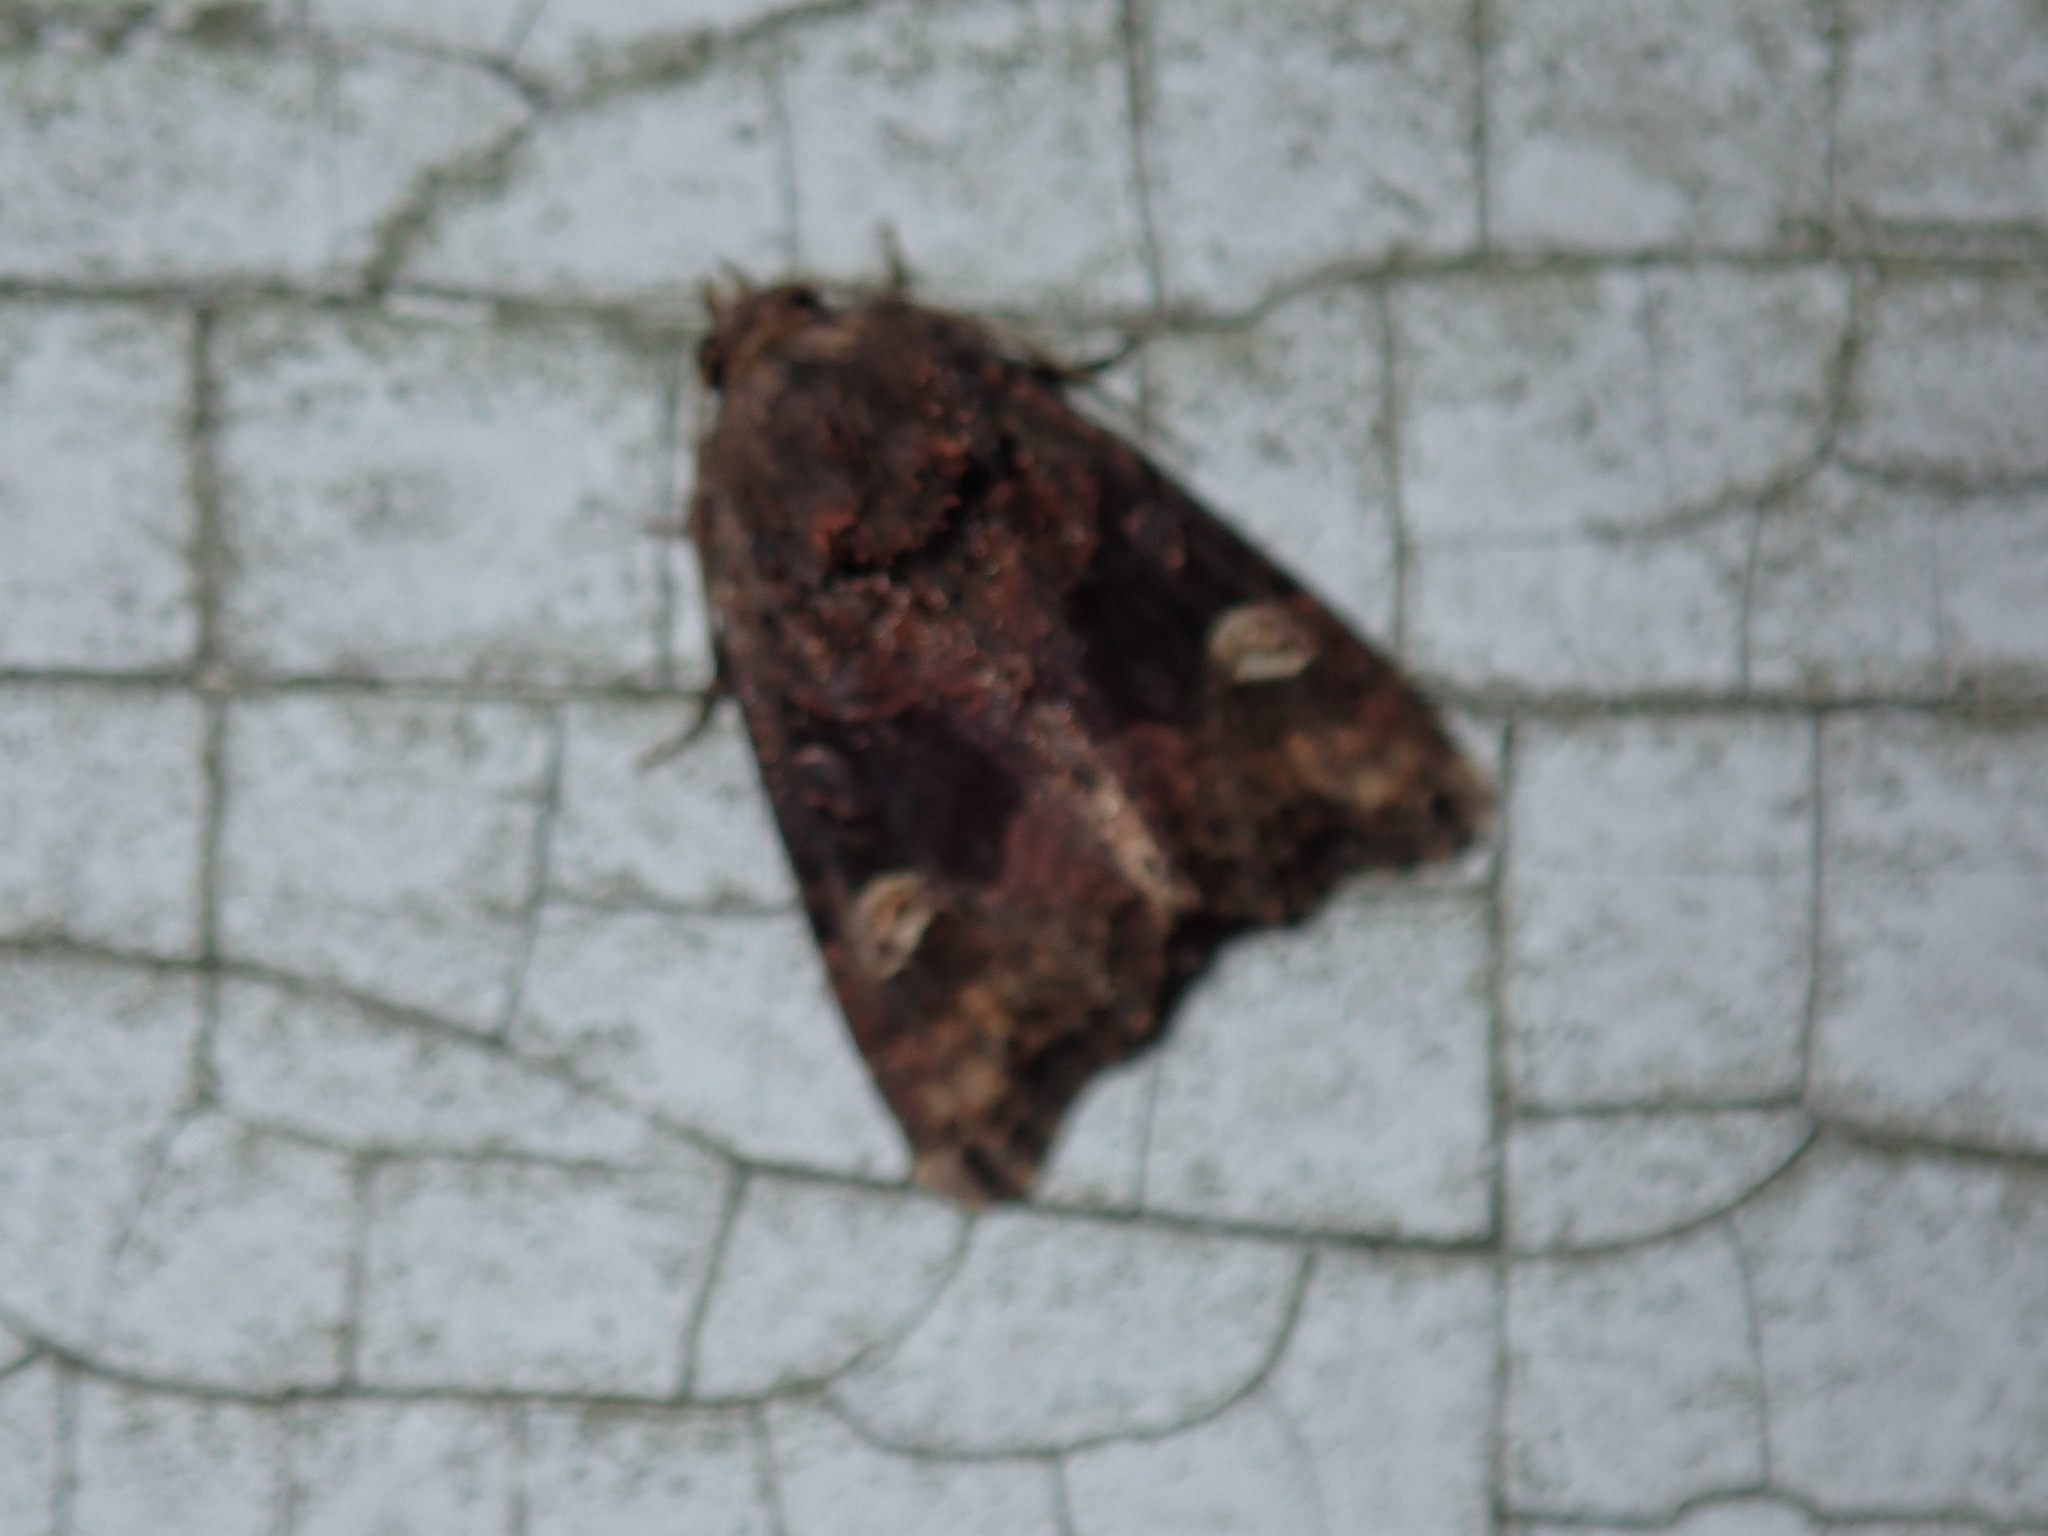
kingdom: Animalia
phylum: Arthropoda
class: Insecta
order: Lepidoptera
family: Noctuidae
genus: Euplexia
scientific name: Euplexia benesimilis
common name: American angle shades
